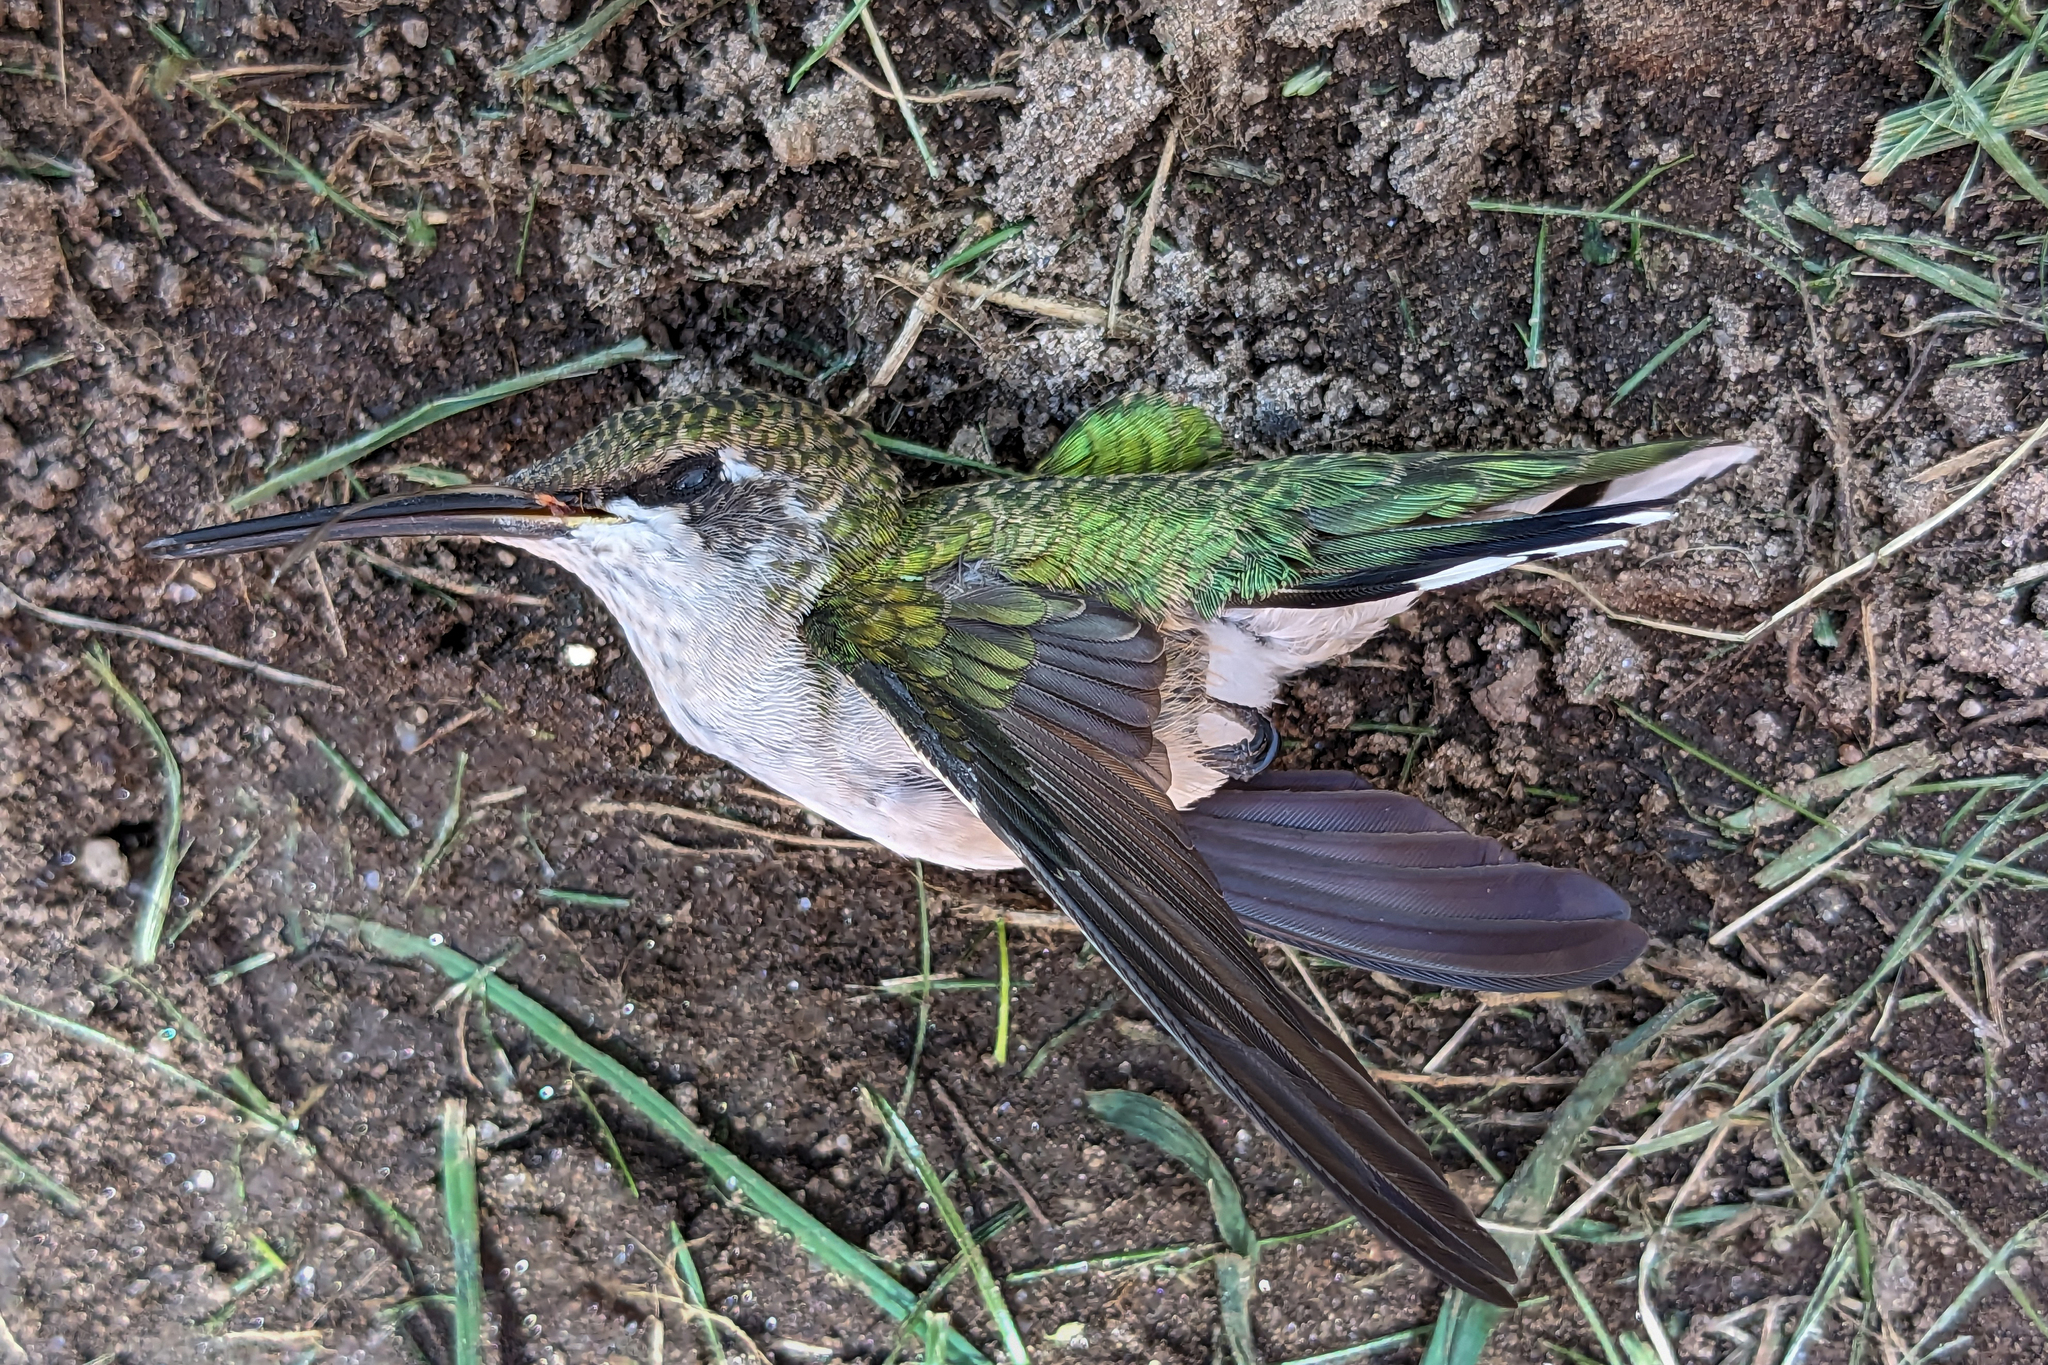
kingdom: Animalia
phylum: Chordata
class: Aves
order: Apodiformes
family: Trochilidae
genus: Archilochus
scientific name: Archilochus colubris
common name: Ruby-throated hummingbird
